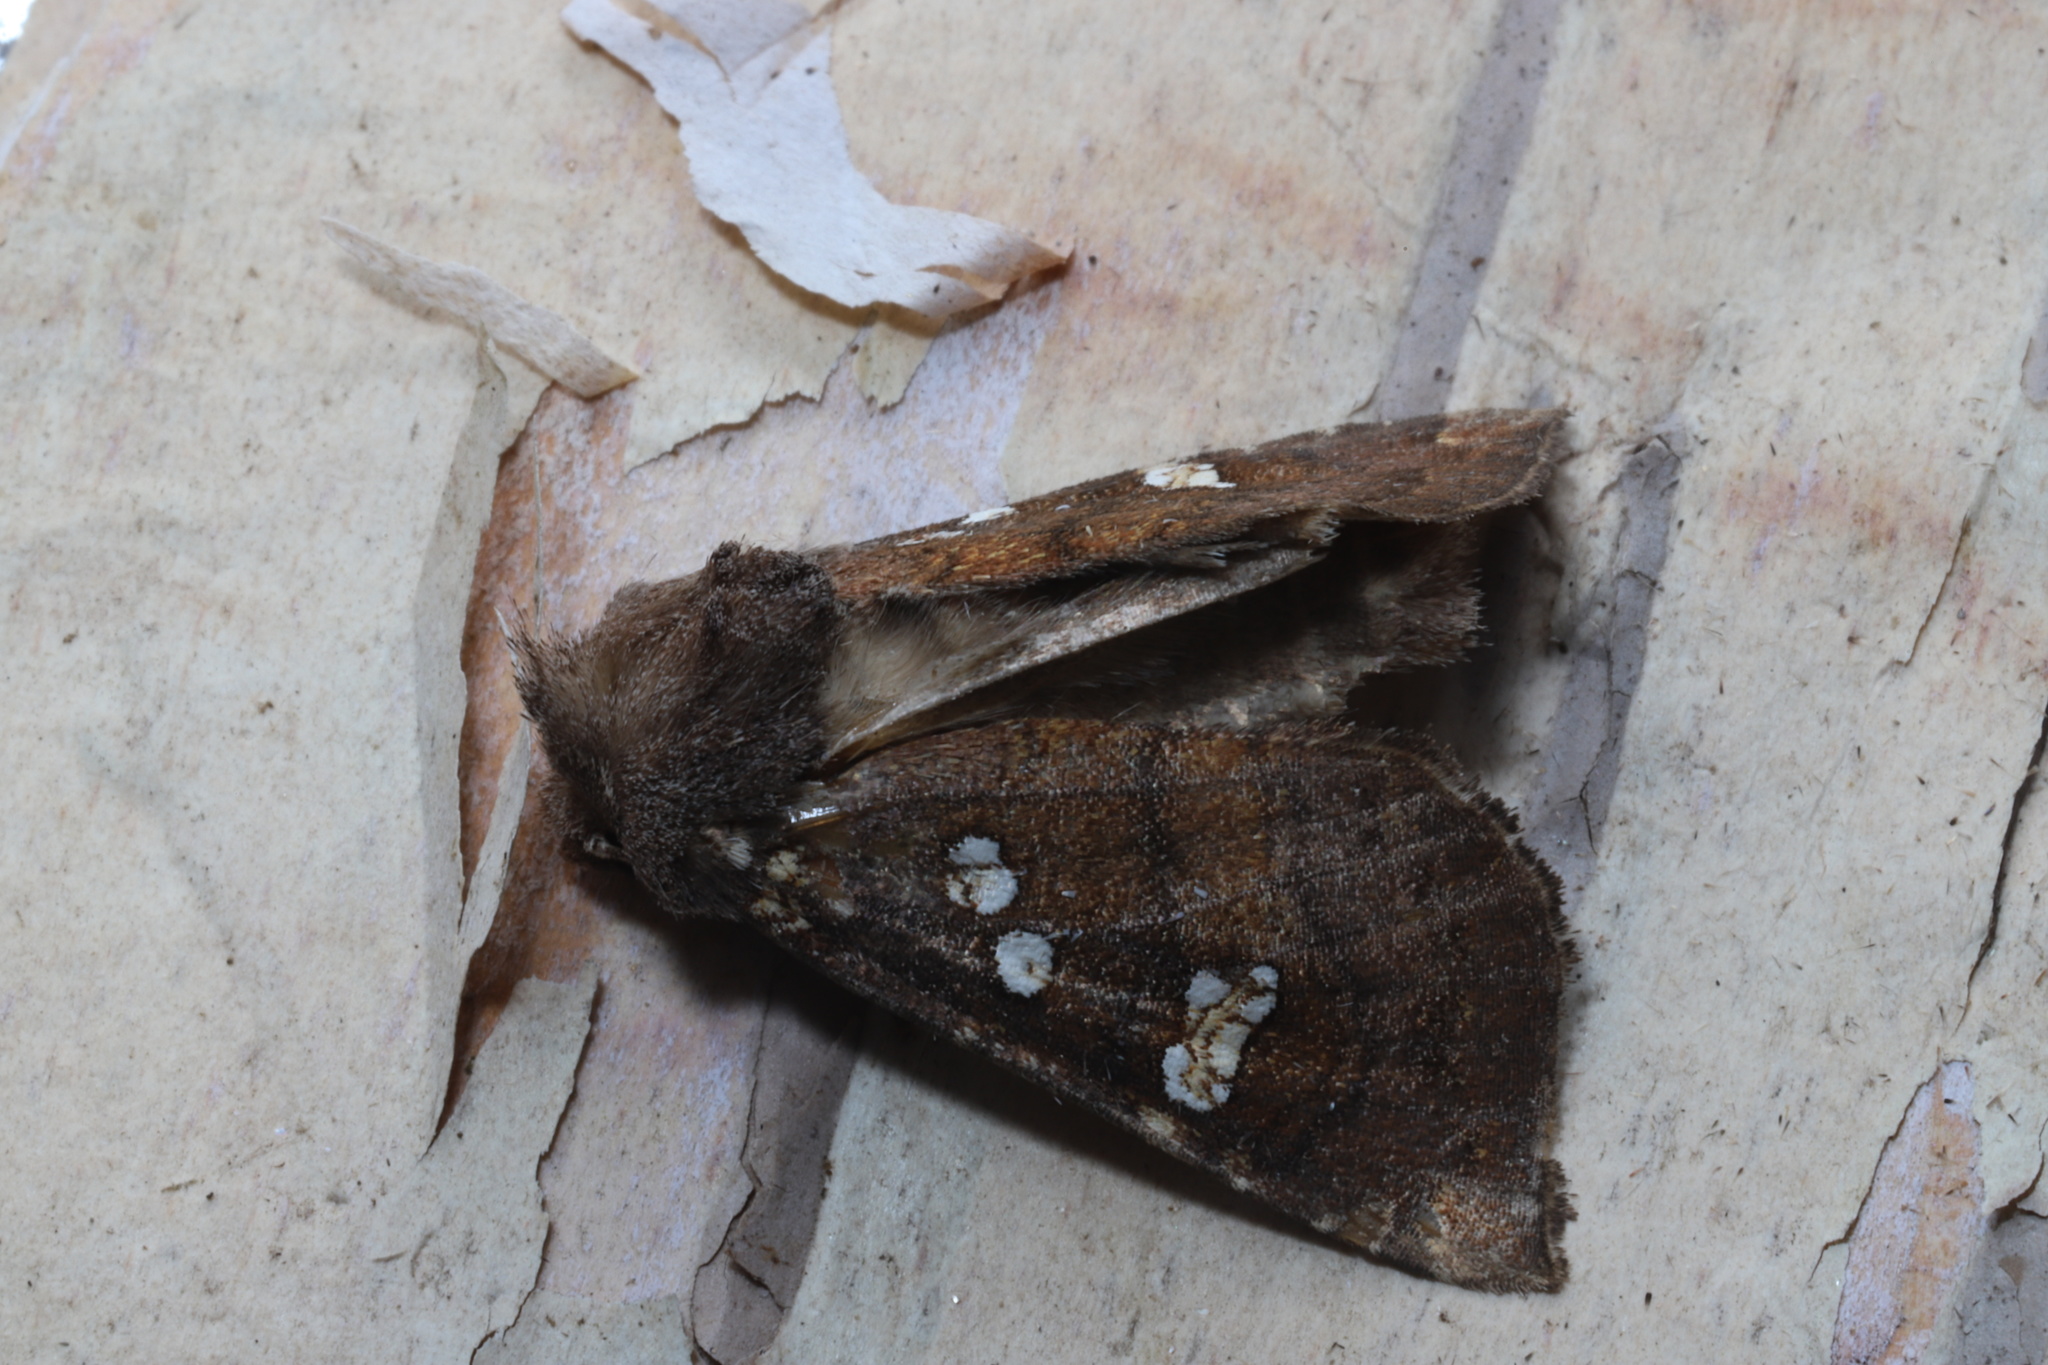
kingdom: Animalia
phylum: Arthropoda
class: Insecta
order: Lepidoptera
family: Noctuidae
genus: Papaipema
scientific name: Papaipema unimoda
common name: Meadow rue borer moth
